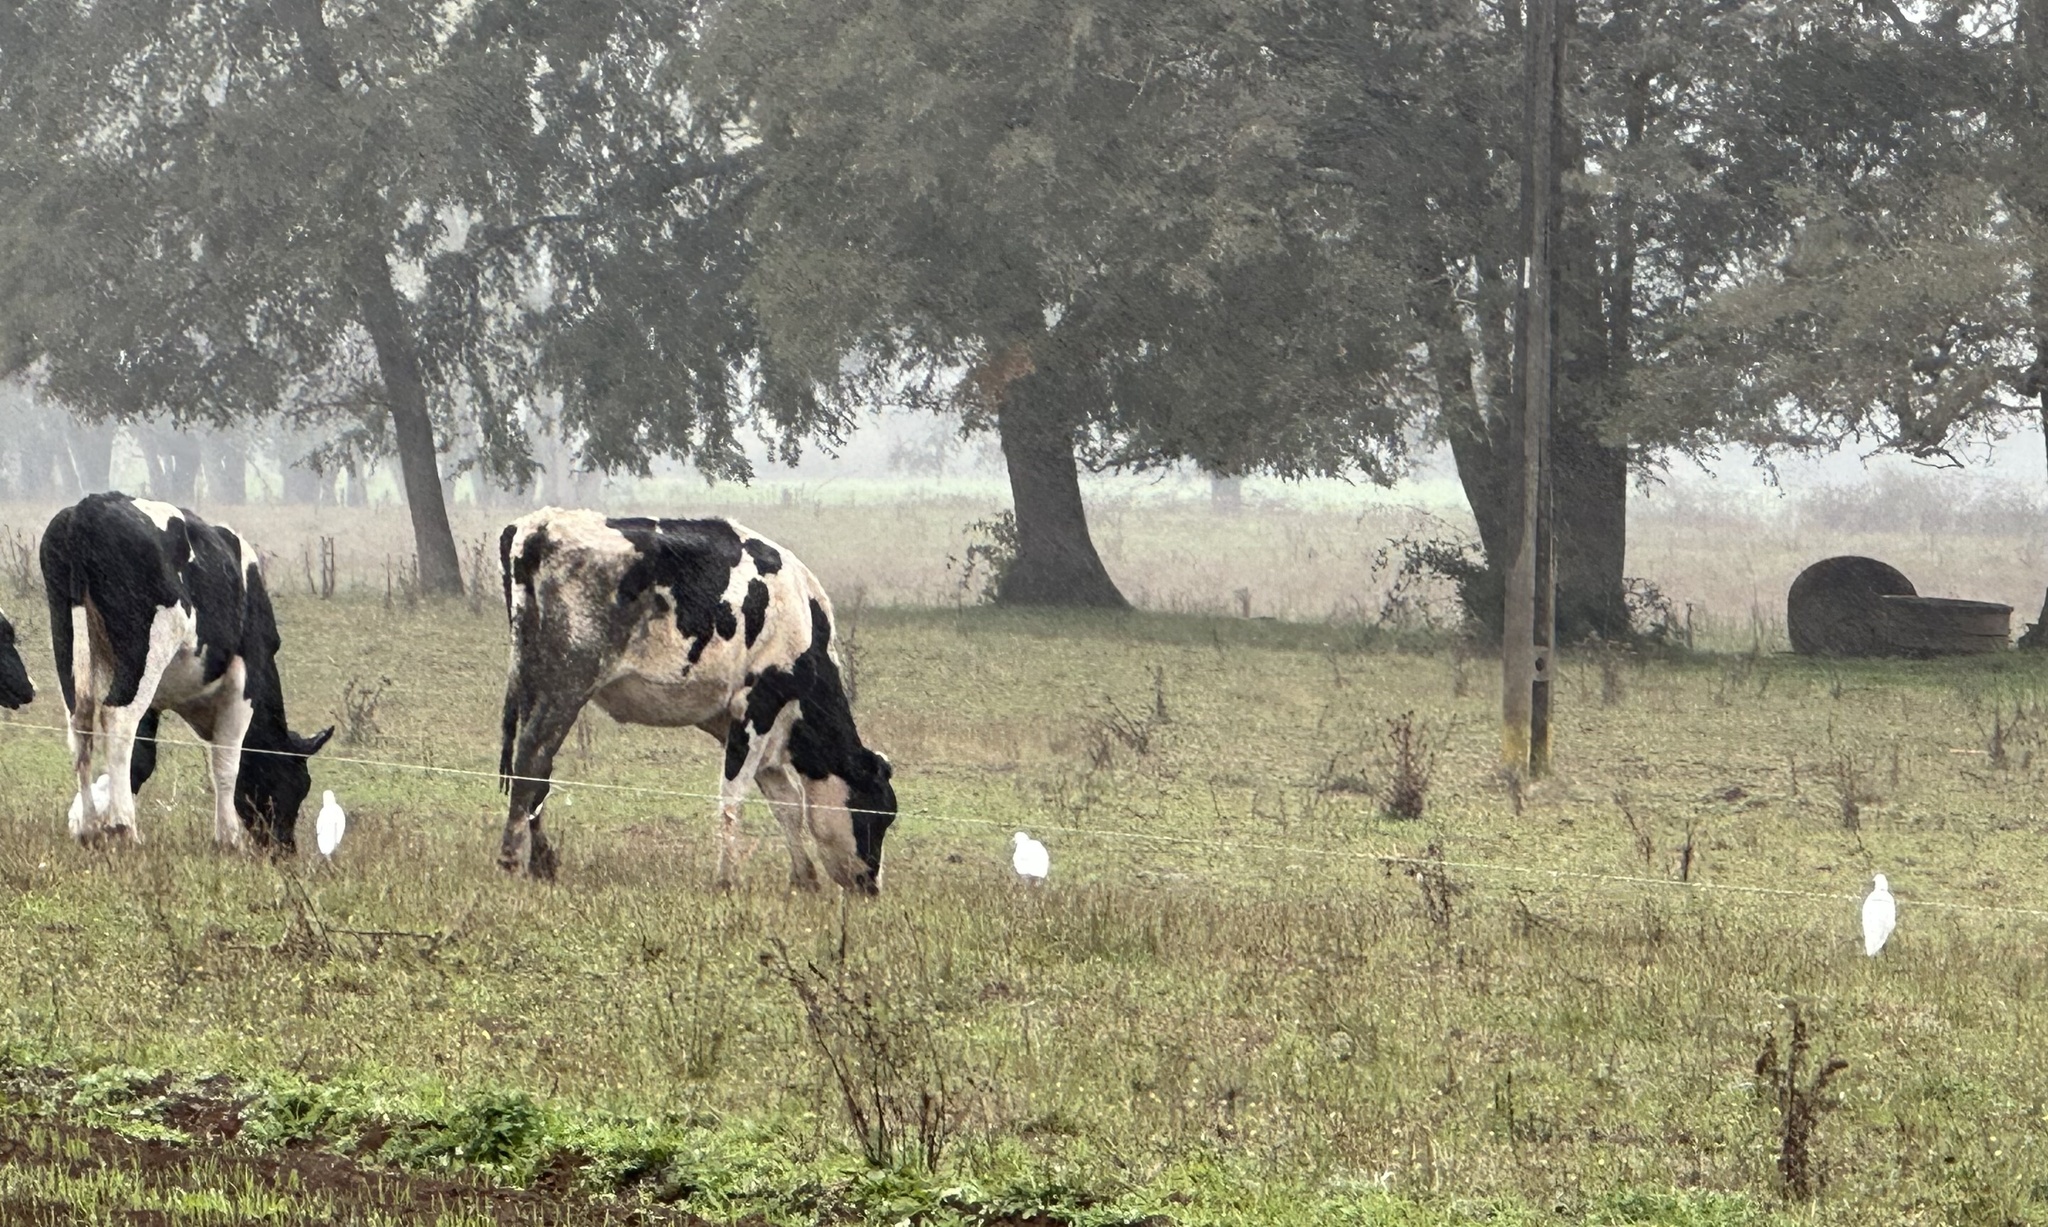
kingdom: Animalia
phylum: Chordata
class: Aves
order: Pelecaniformes
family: Ardeidae
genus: Egretta
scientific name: Egretta thula
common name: Snowy egret
